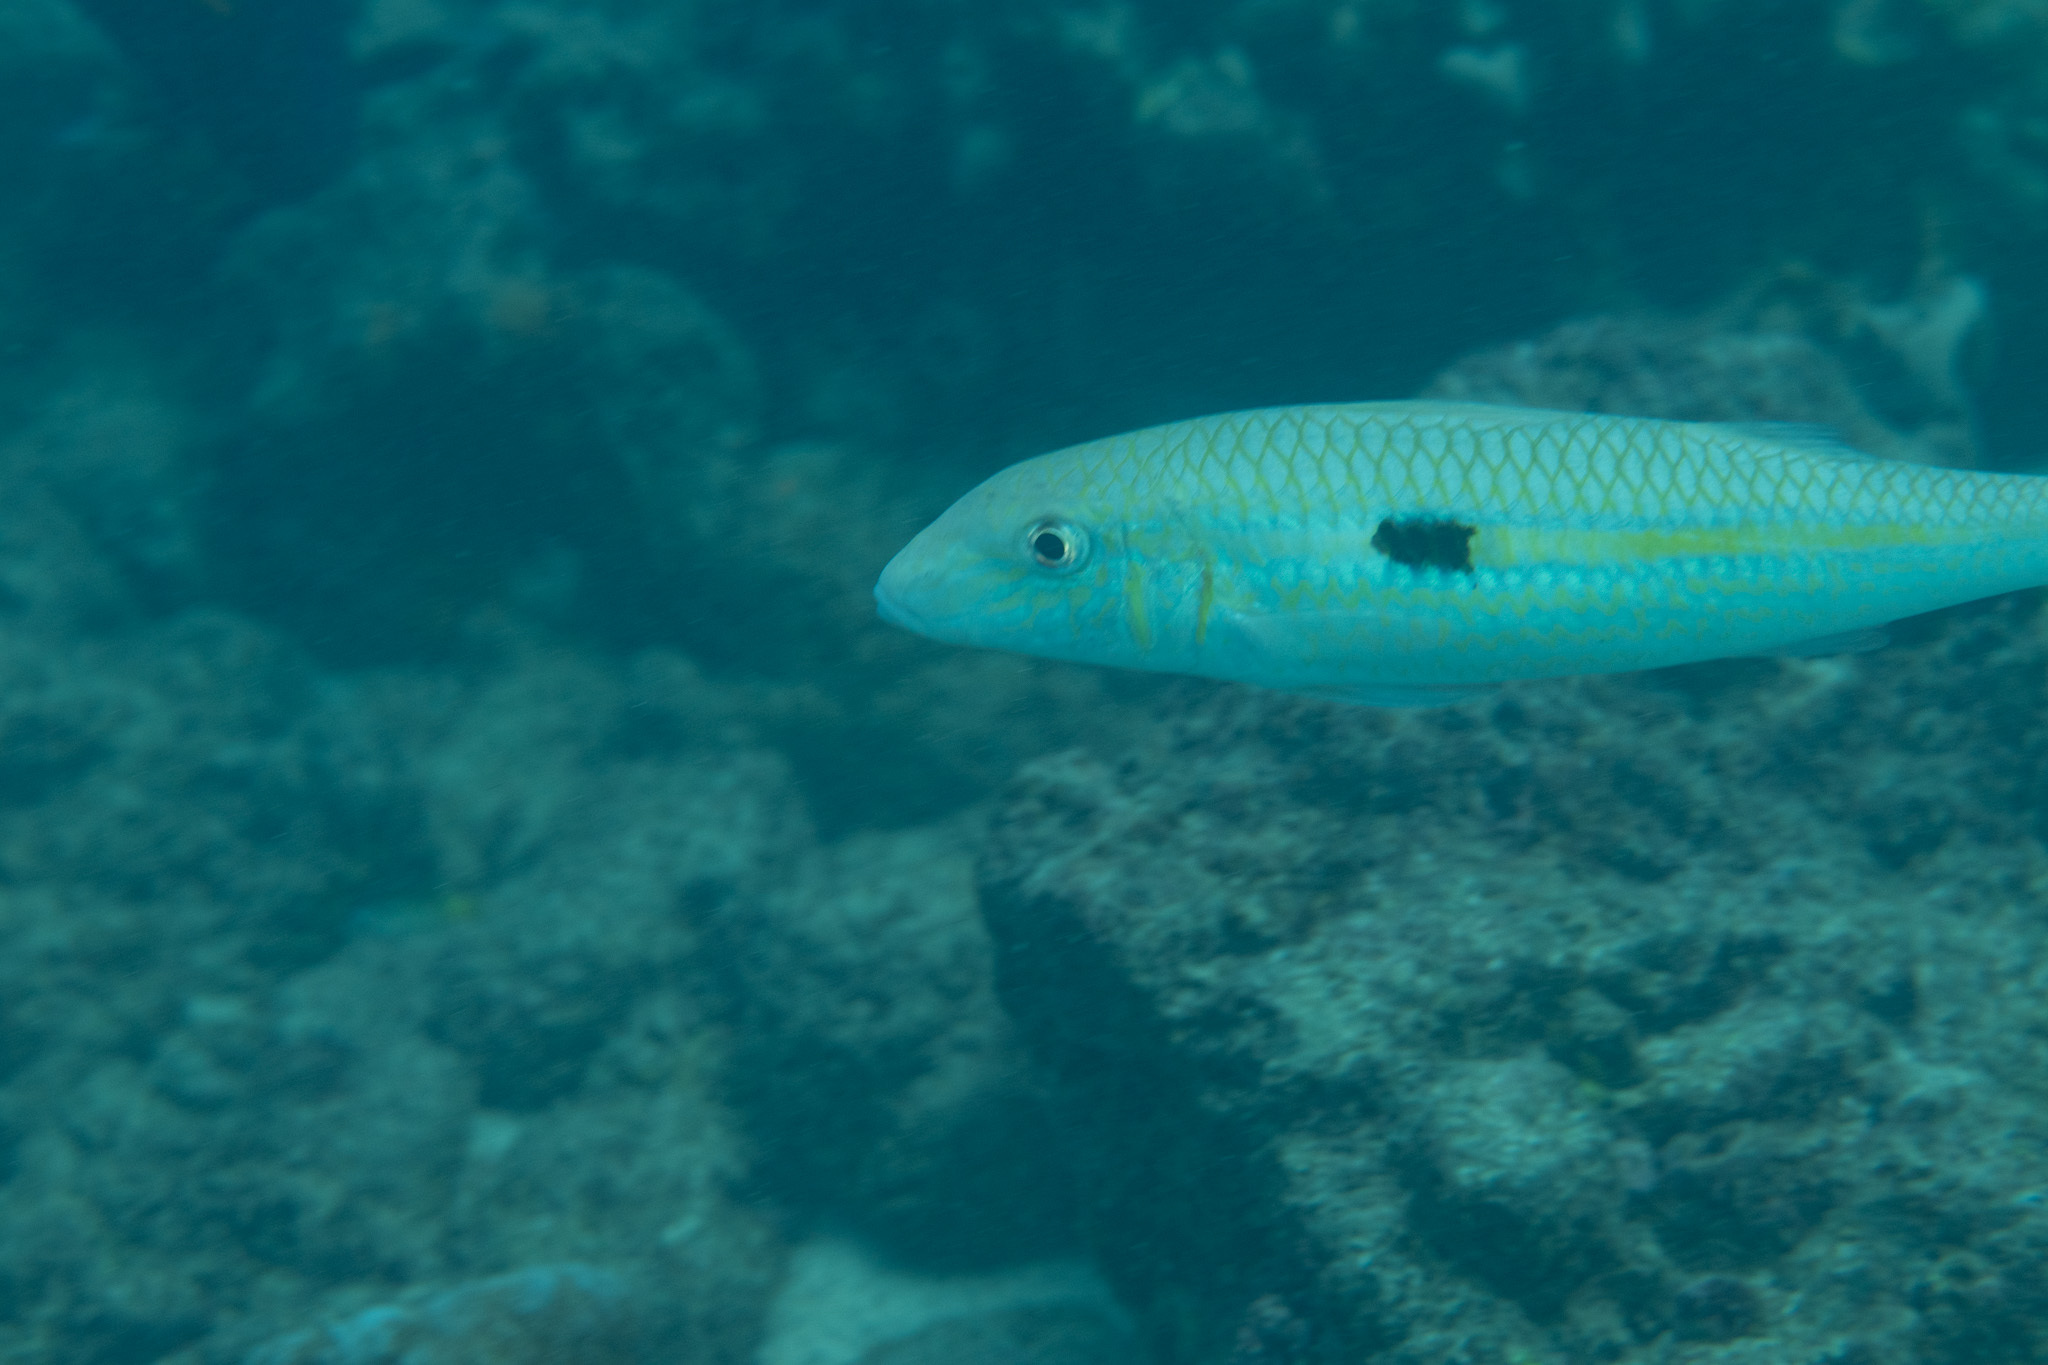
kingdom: Animalia
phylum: Chordata
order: Perciformes
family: Mullidae
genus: Mulloidichthys
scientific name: Mulloidichthys flavolineatus
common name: Yellowstripe goatfish
